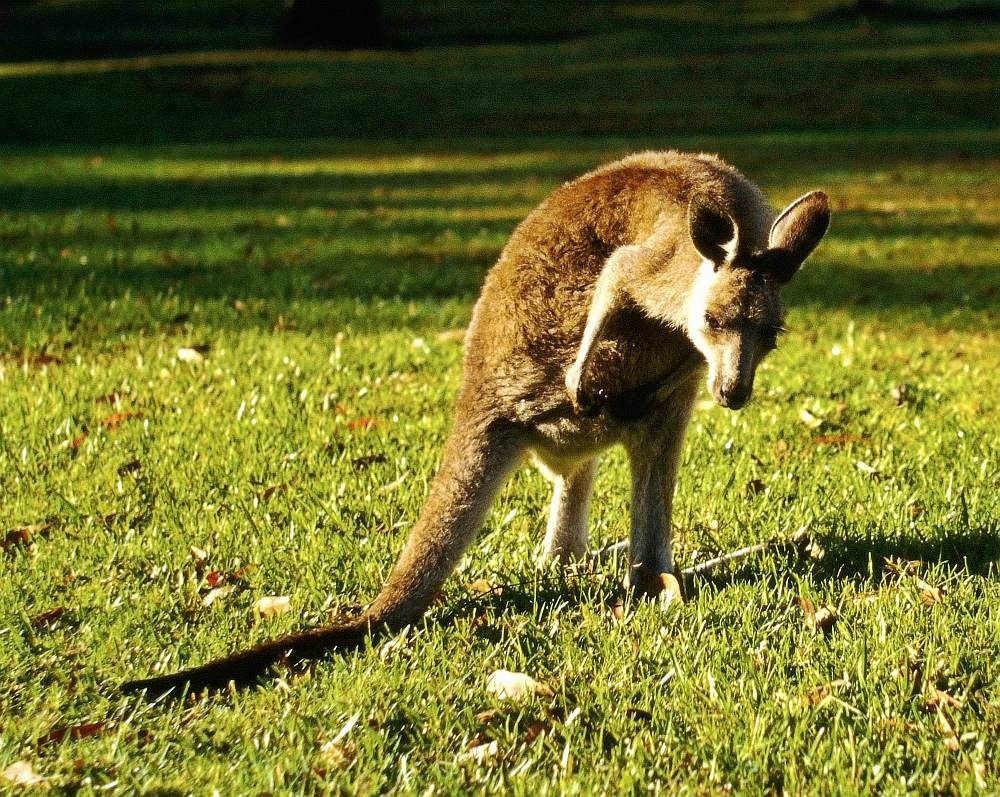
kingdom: Animalia
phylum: Chordata
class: Mammalia
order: Diprotodontia
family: Macropodidae
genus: Macropus
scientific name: Macropus giganteus
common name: Eastern grey kangaroo
